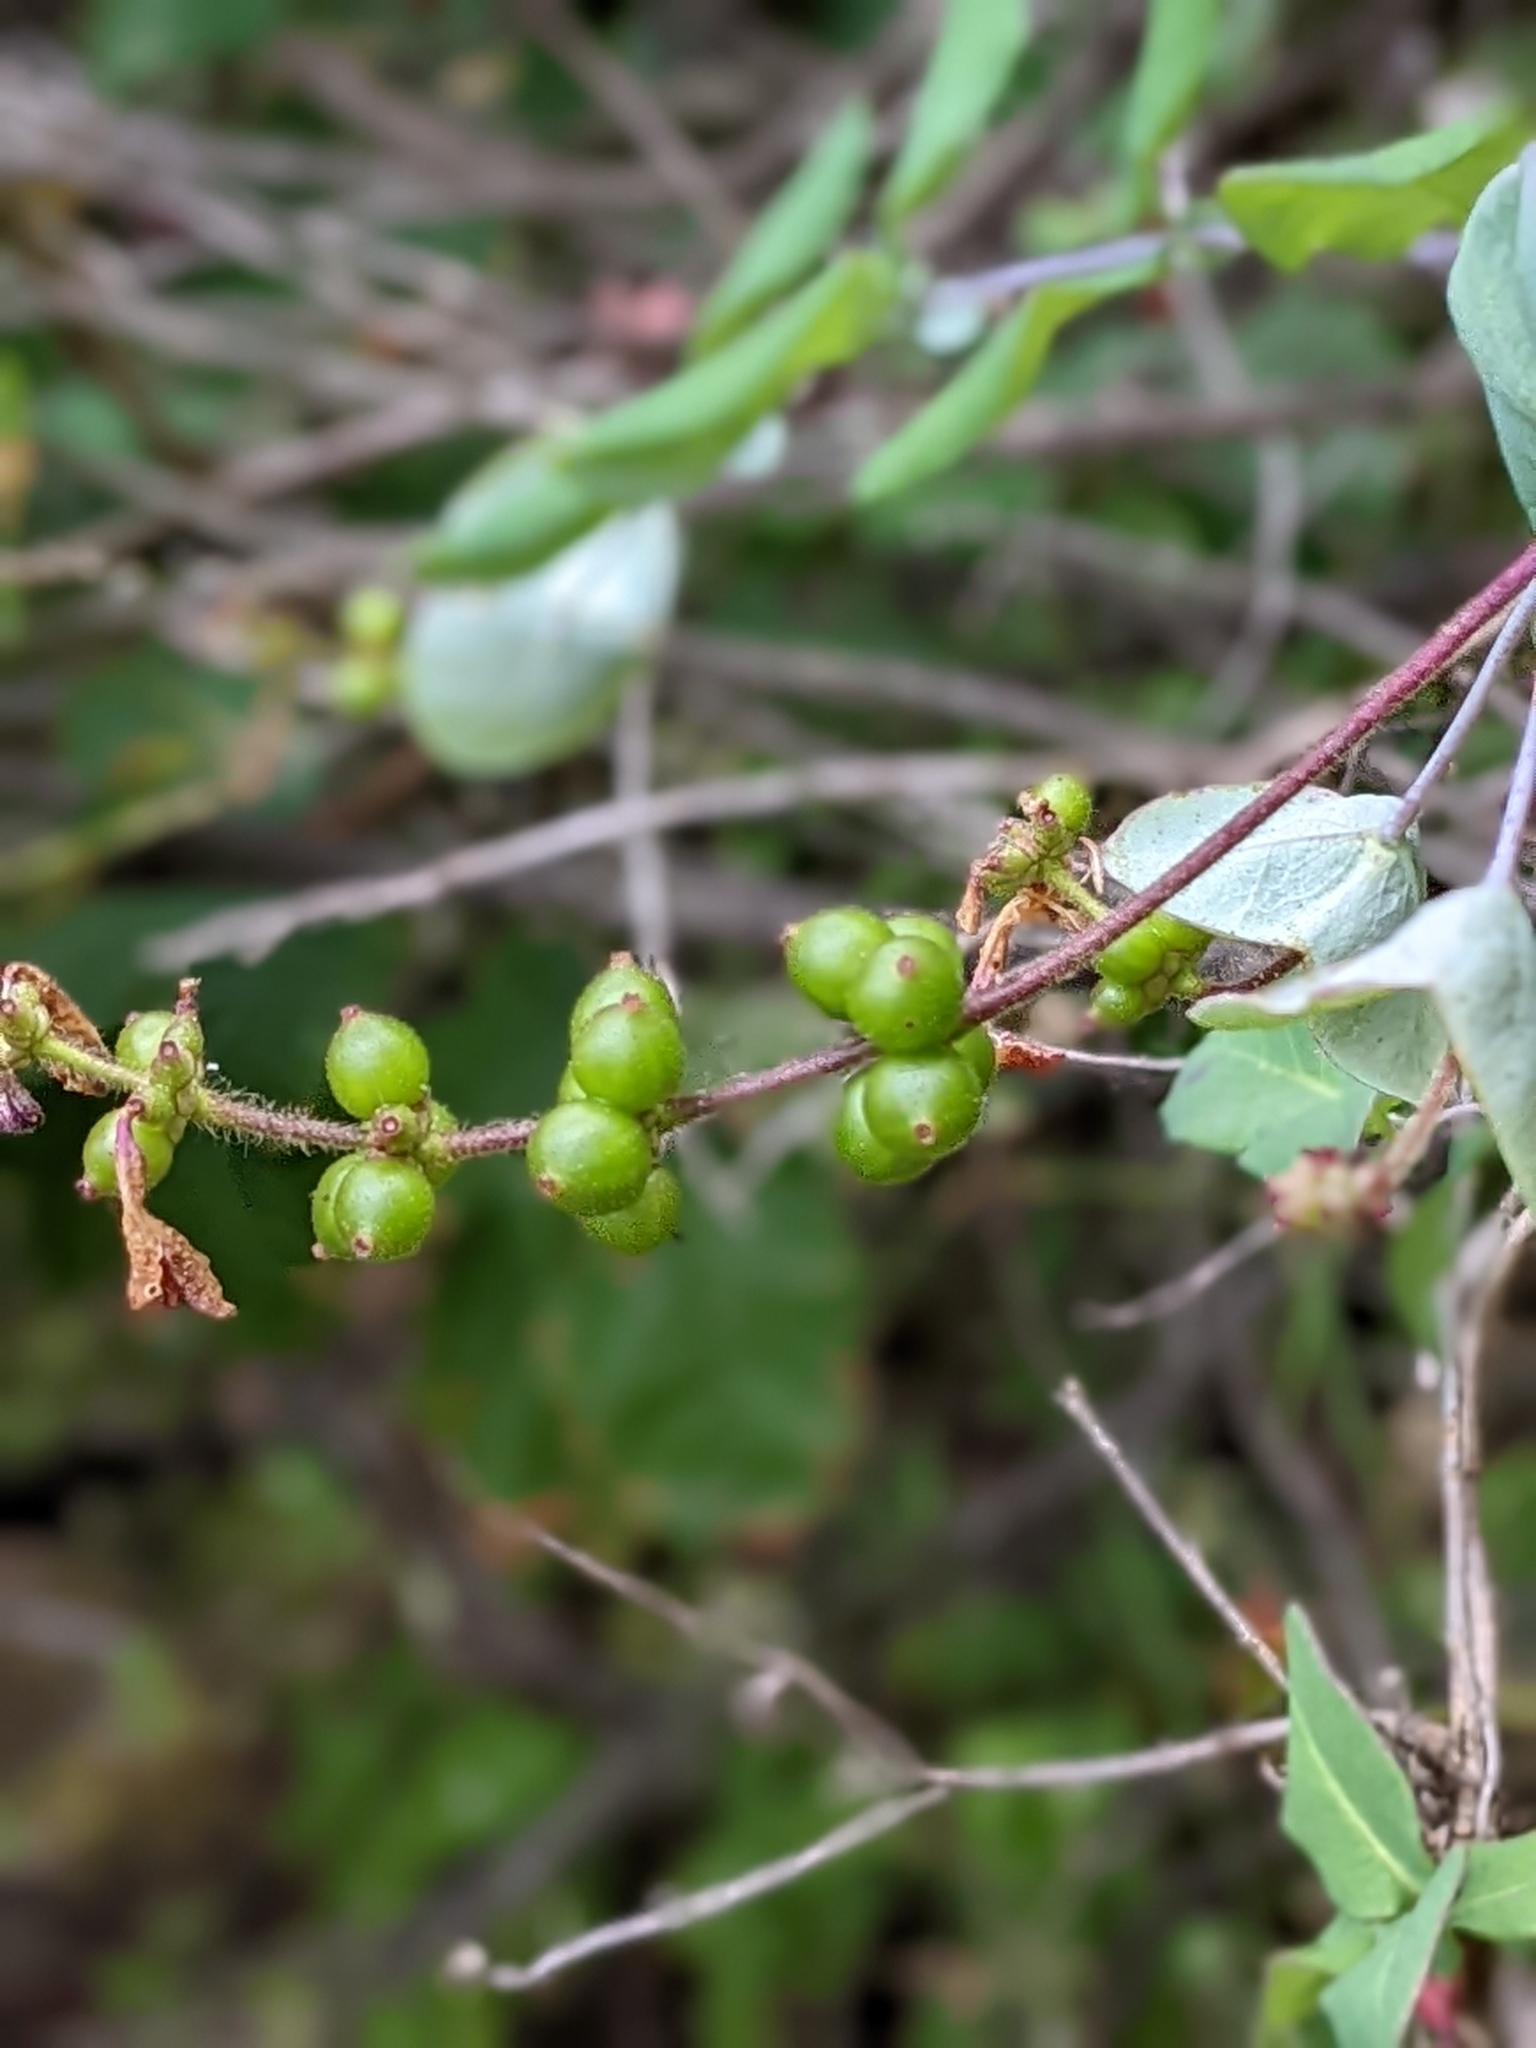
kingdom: Plantae
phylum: Tracheophyta
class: Magnoliopsida
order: Dipsacales
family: Caprifoliaceae
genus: Lonicera
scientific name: Lonicera hispidula
